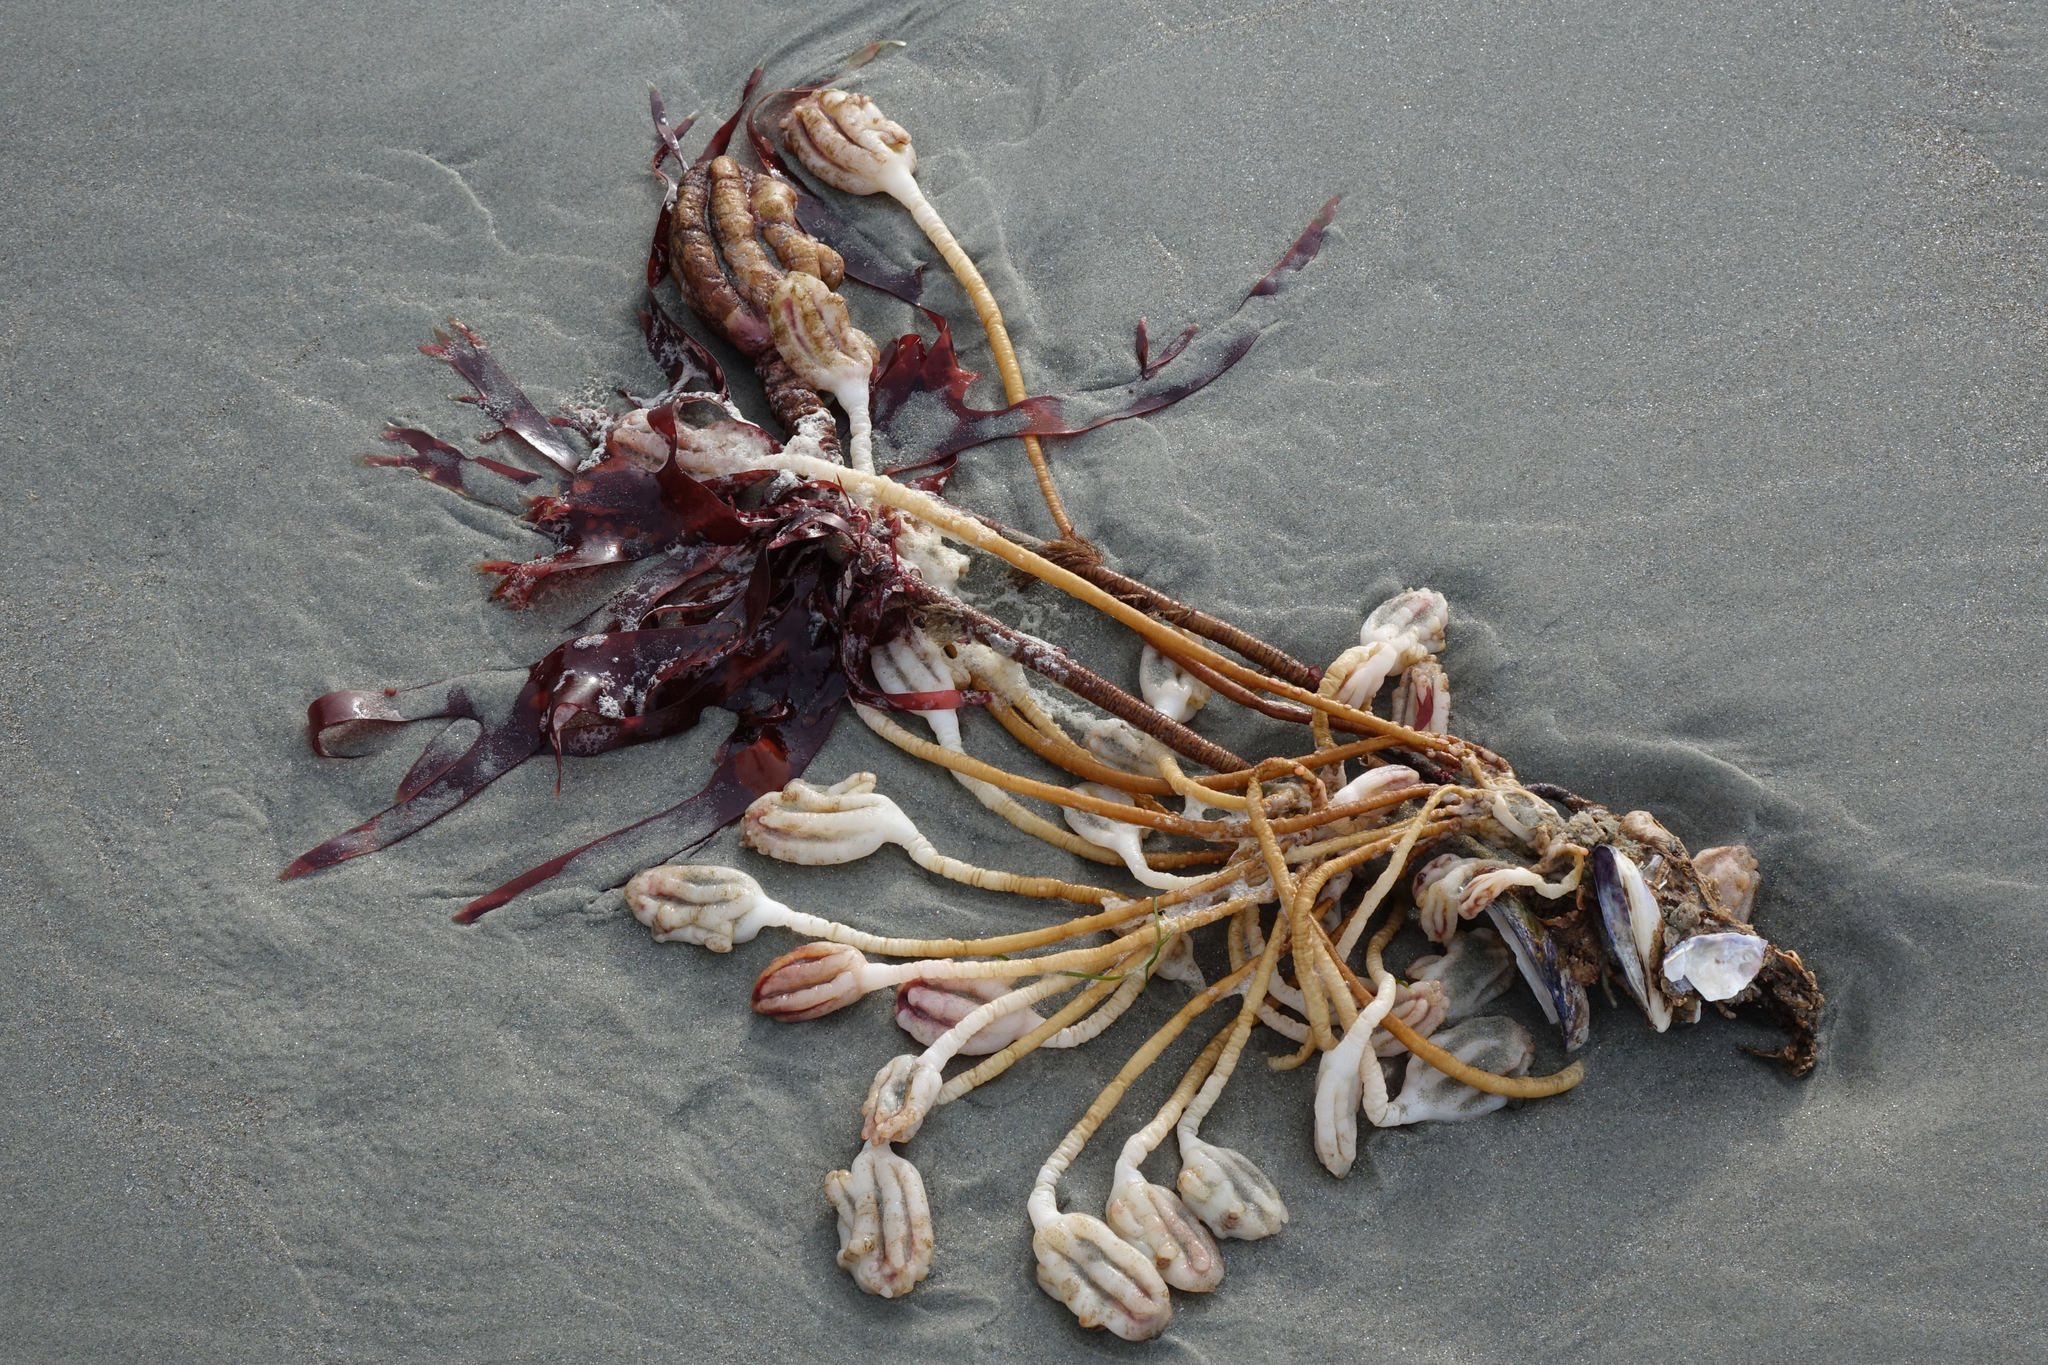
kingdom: Animalia
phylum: Chordata
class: Ascidiacea
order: Stolidobranchia
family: Pyuridae
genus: Pyura
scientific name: Pyura pachydermatina
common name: Sea tulip
